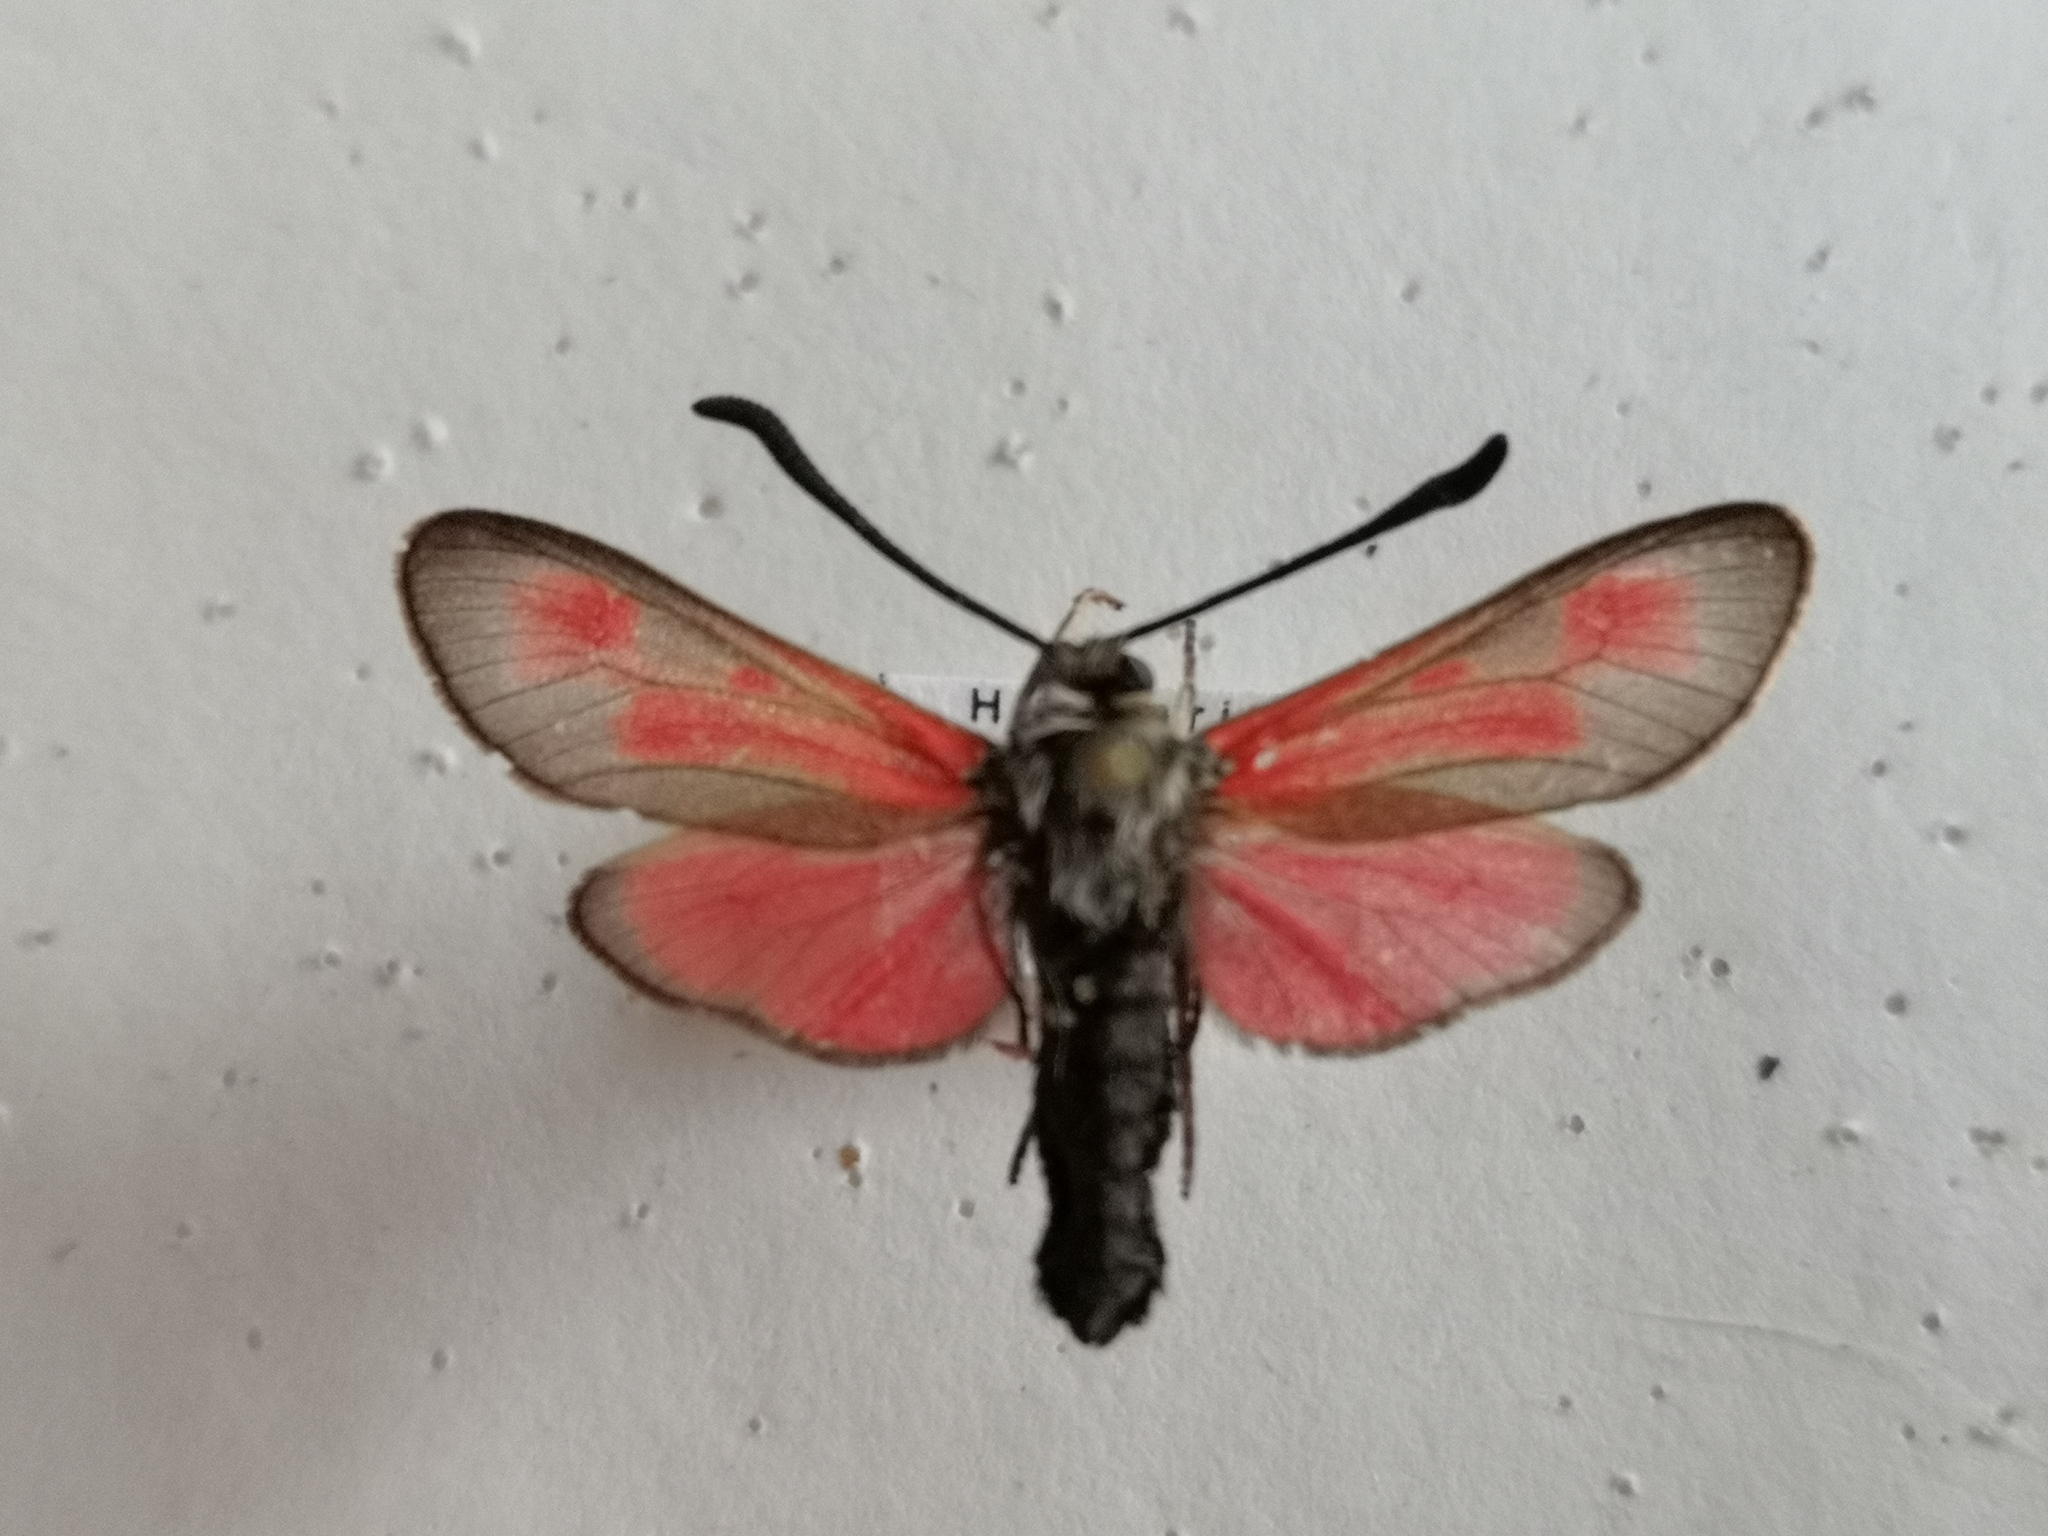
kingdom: Animalia
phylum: Arthropoda
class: Insecta
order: Lepidoptera
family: Zygaenidae
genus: Zygaena
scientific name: Zygaena punctum
